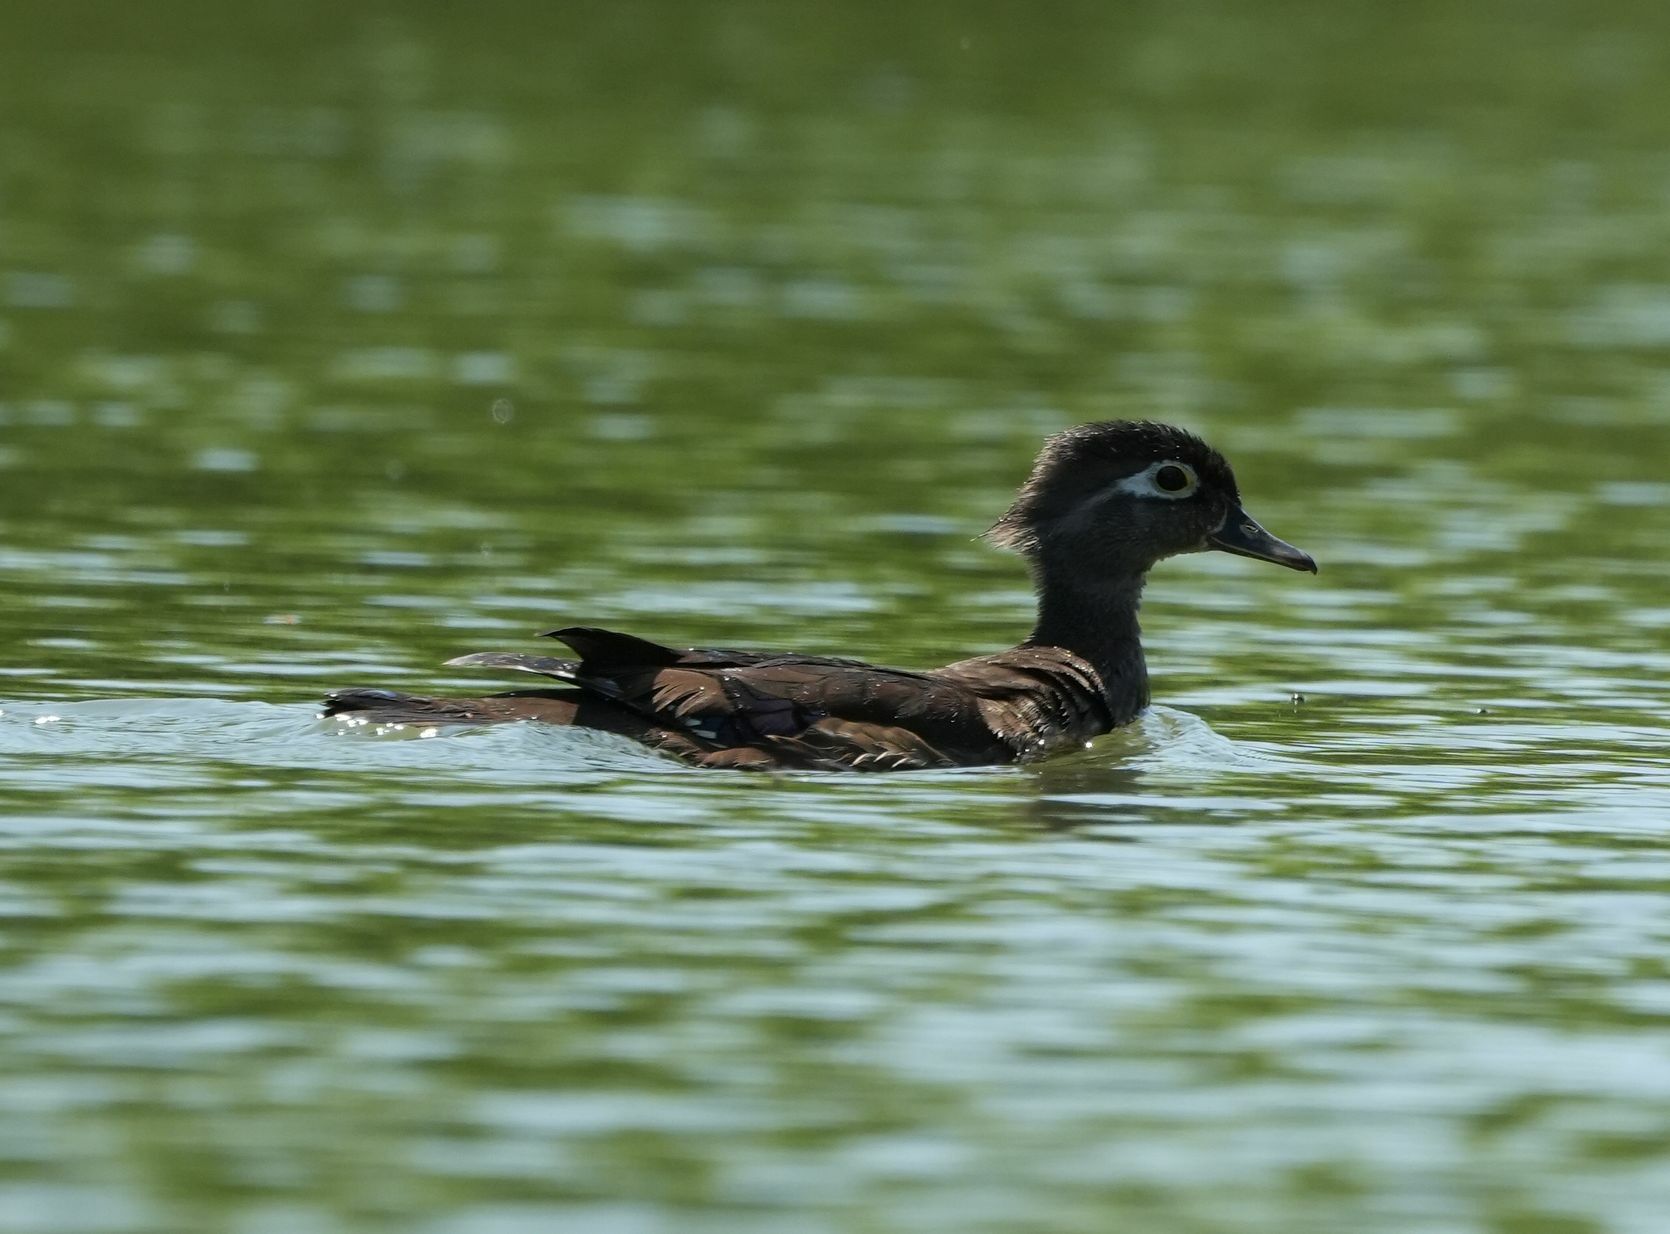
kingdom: Animalia
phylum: Chordata
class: Aves
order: Anseriformes
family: Anatidae
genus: Aix
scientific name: Aix sponsa
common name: Wood duck
